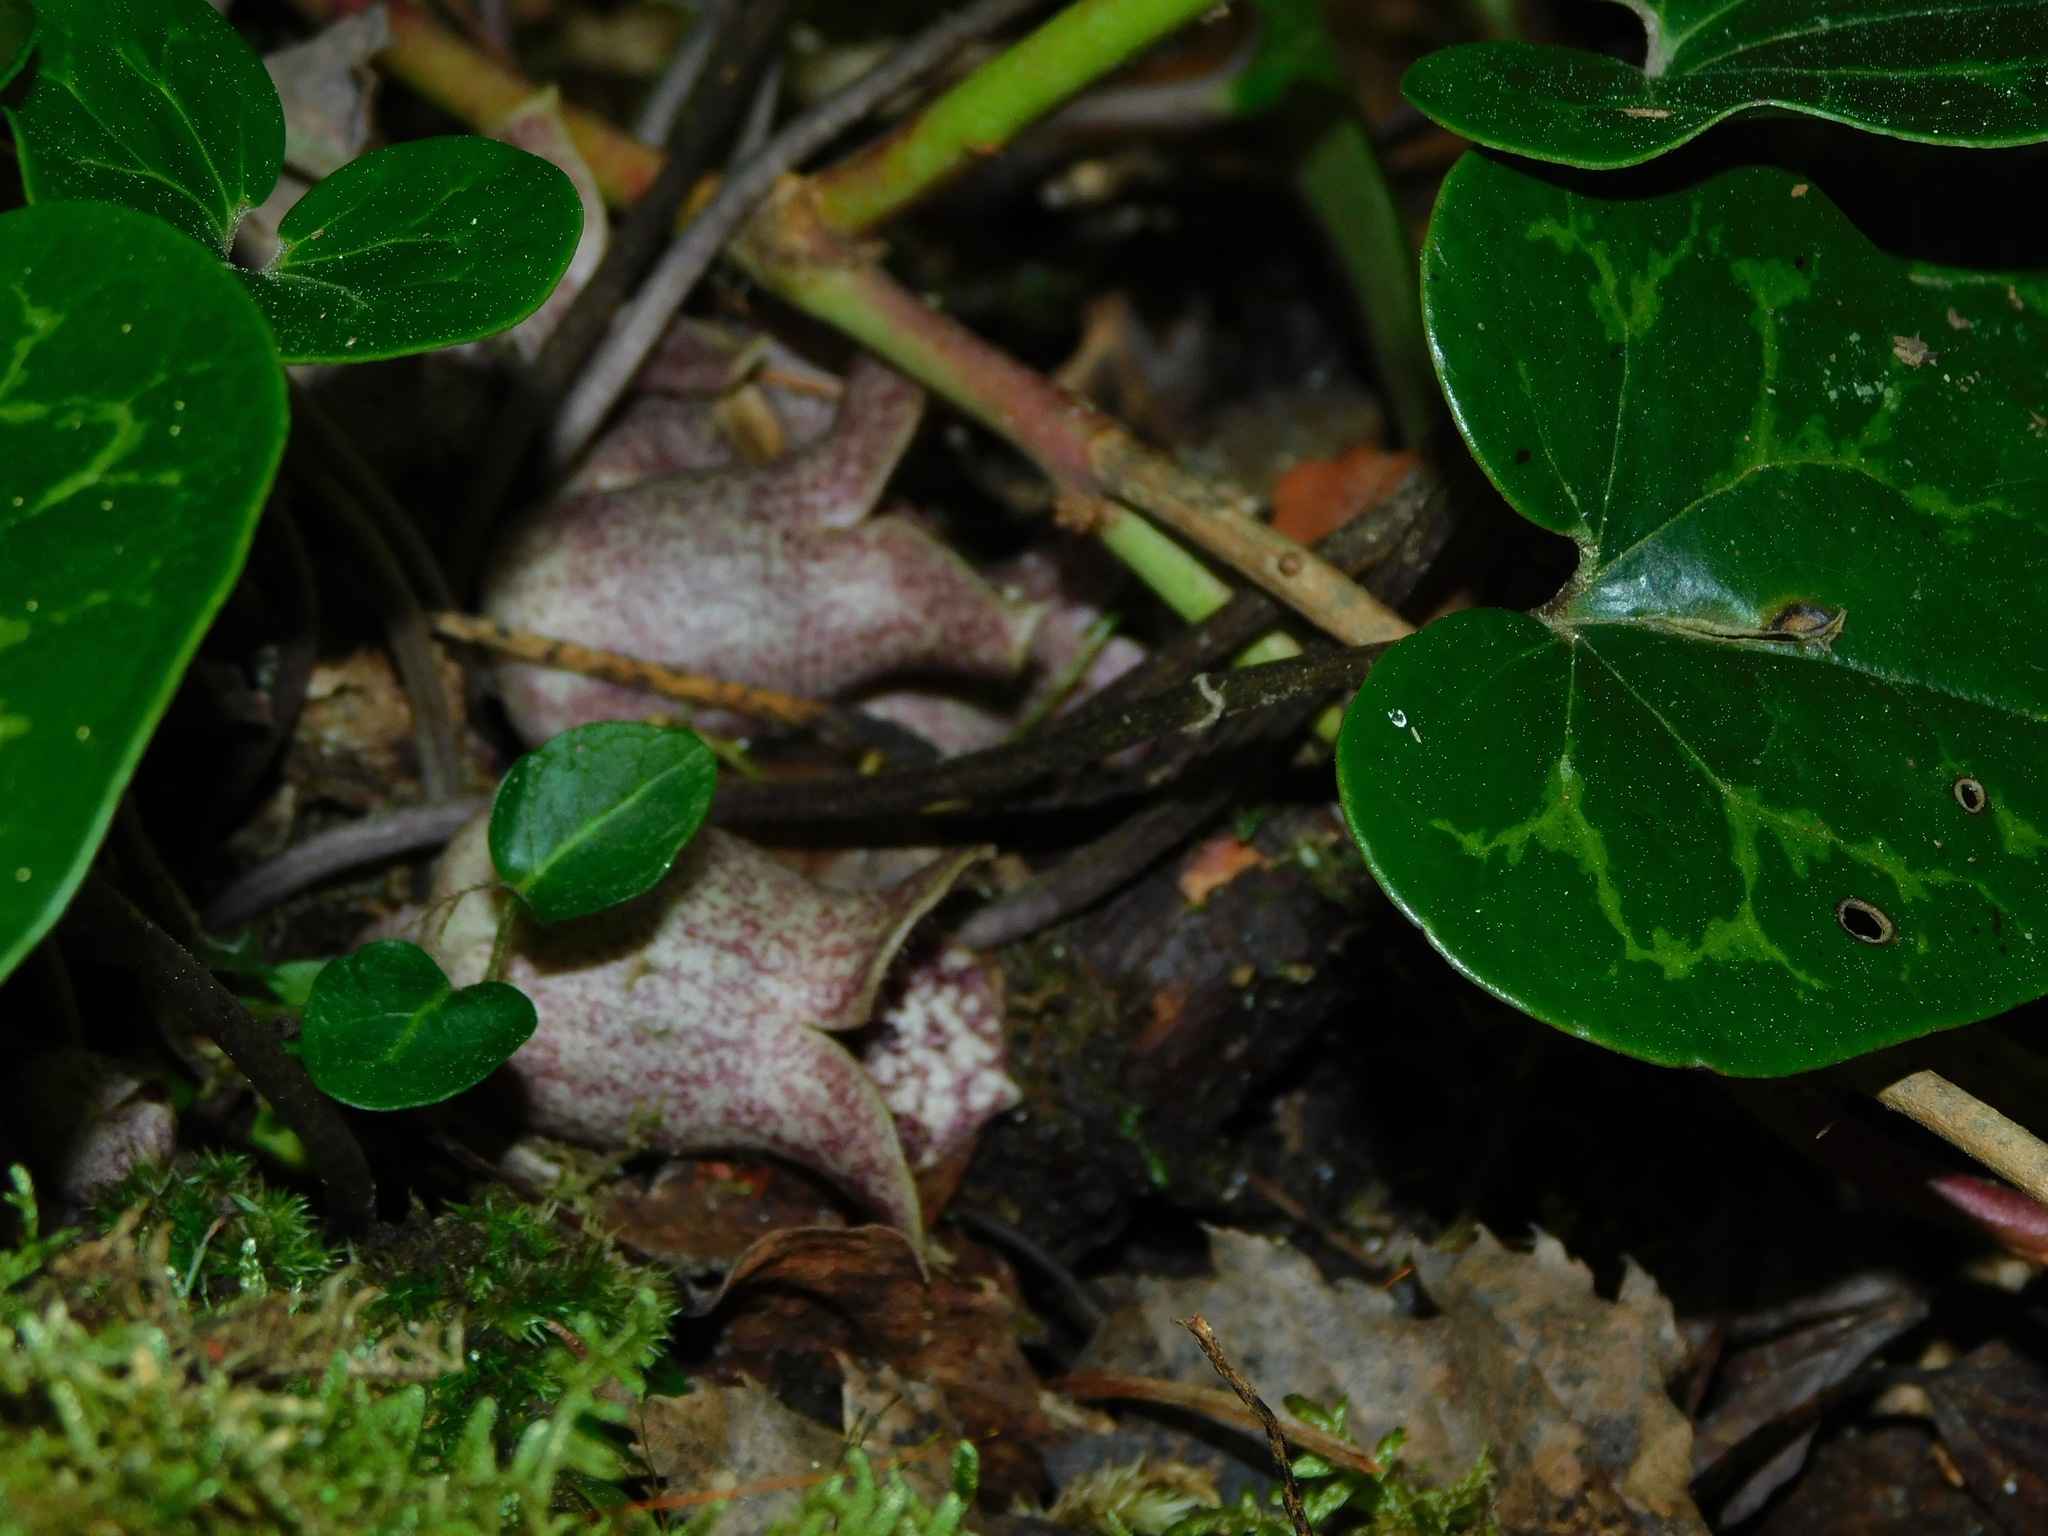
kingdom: Plantae
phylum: Tracheophyta
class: Magnoliopsida
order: Piperales
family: Aristolochiaceae
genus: Hexastylis
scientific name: Hexastylis shuttleworthii
